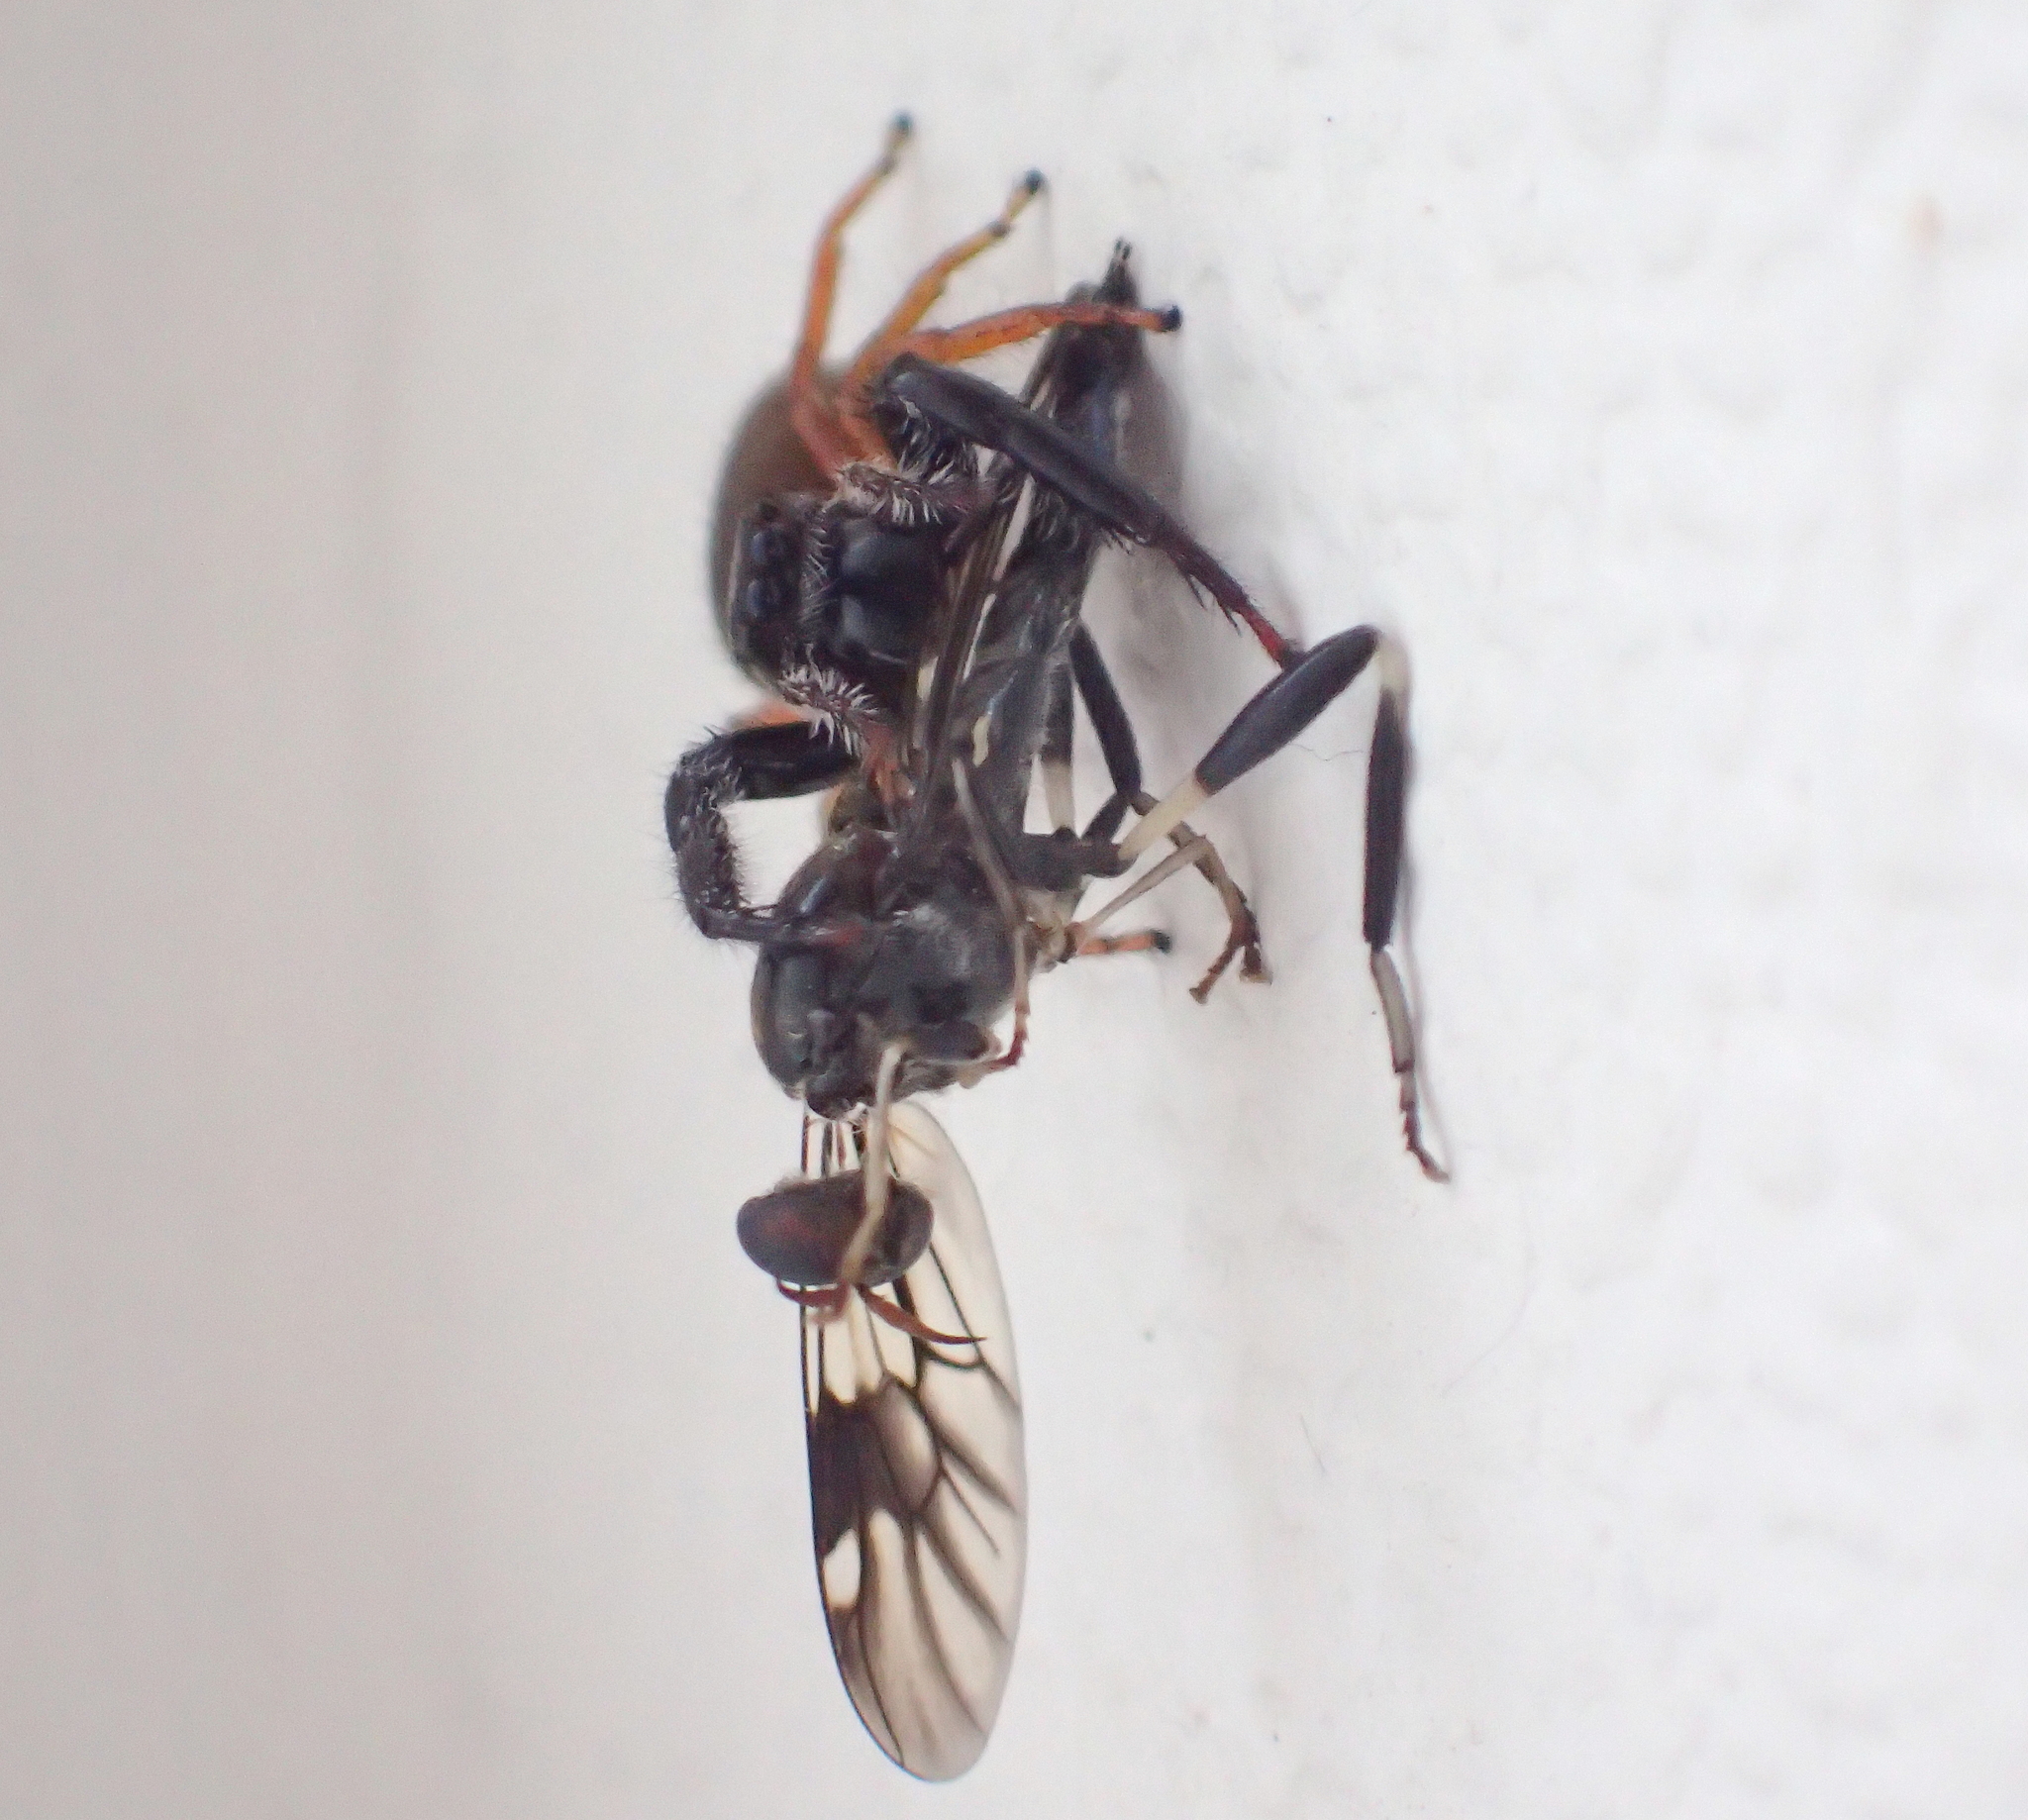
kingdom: Animalia
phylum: Arthropoda
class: Arachnida
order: Araneae
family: Salticidae
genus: Trite
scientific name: Trite planiceps
